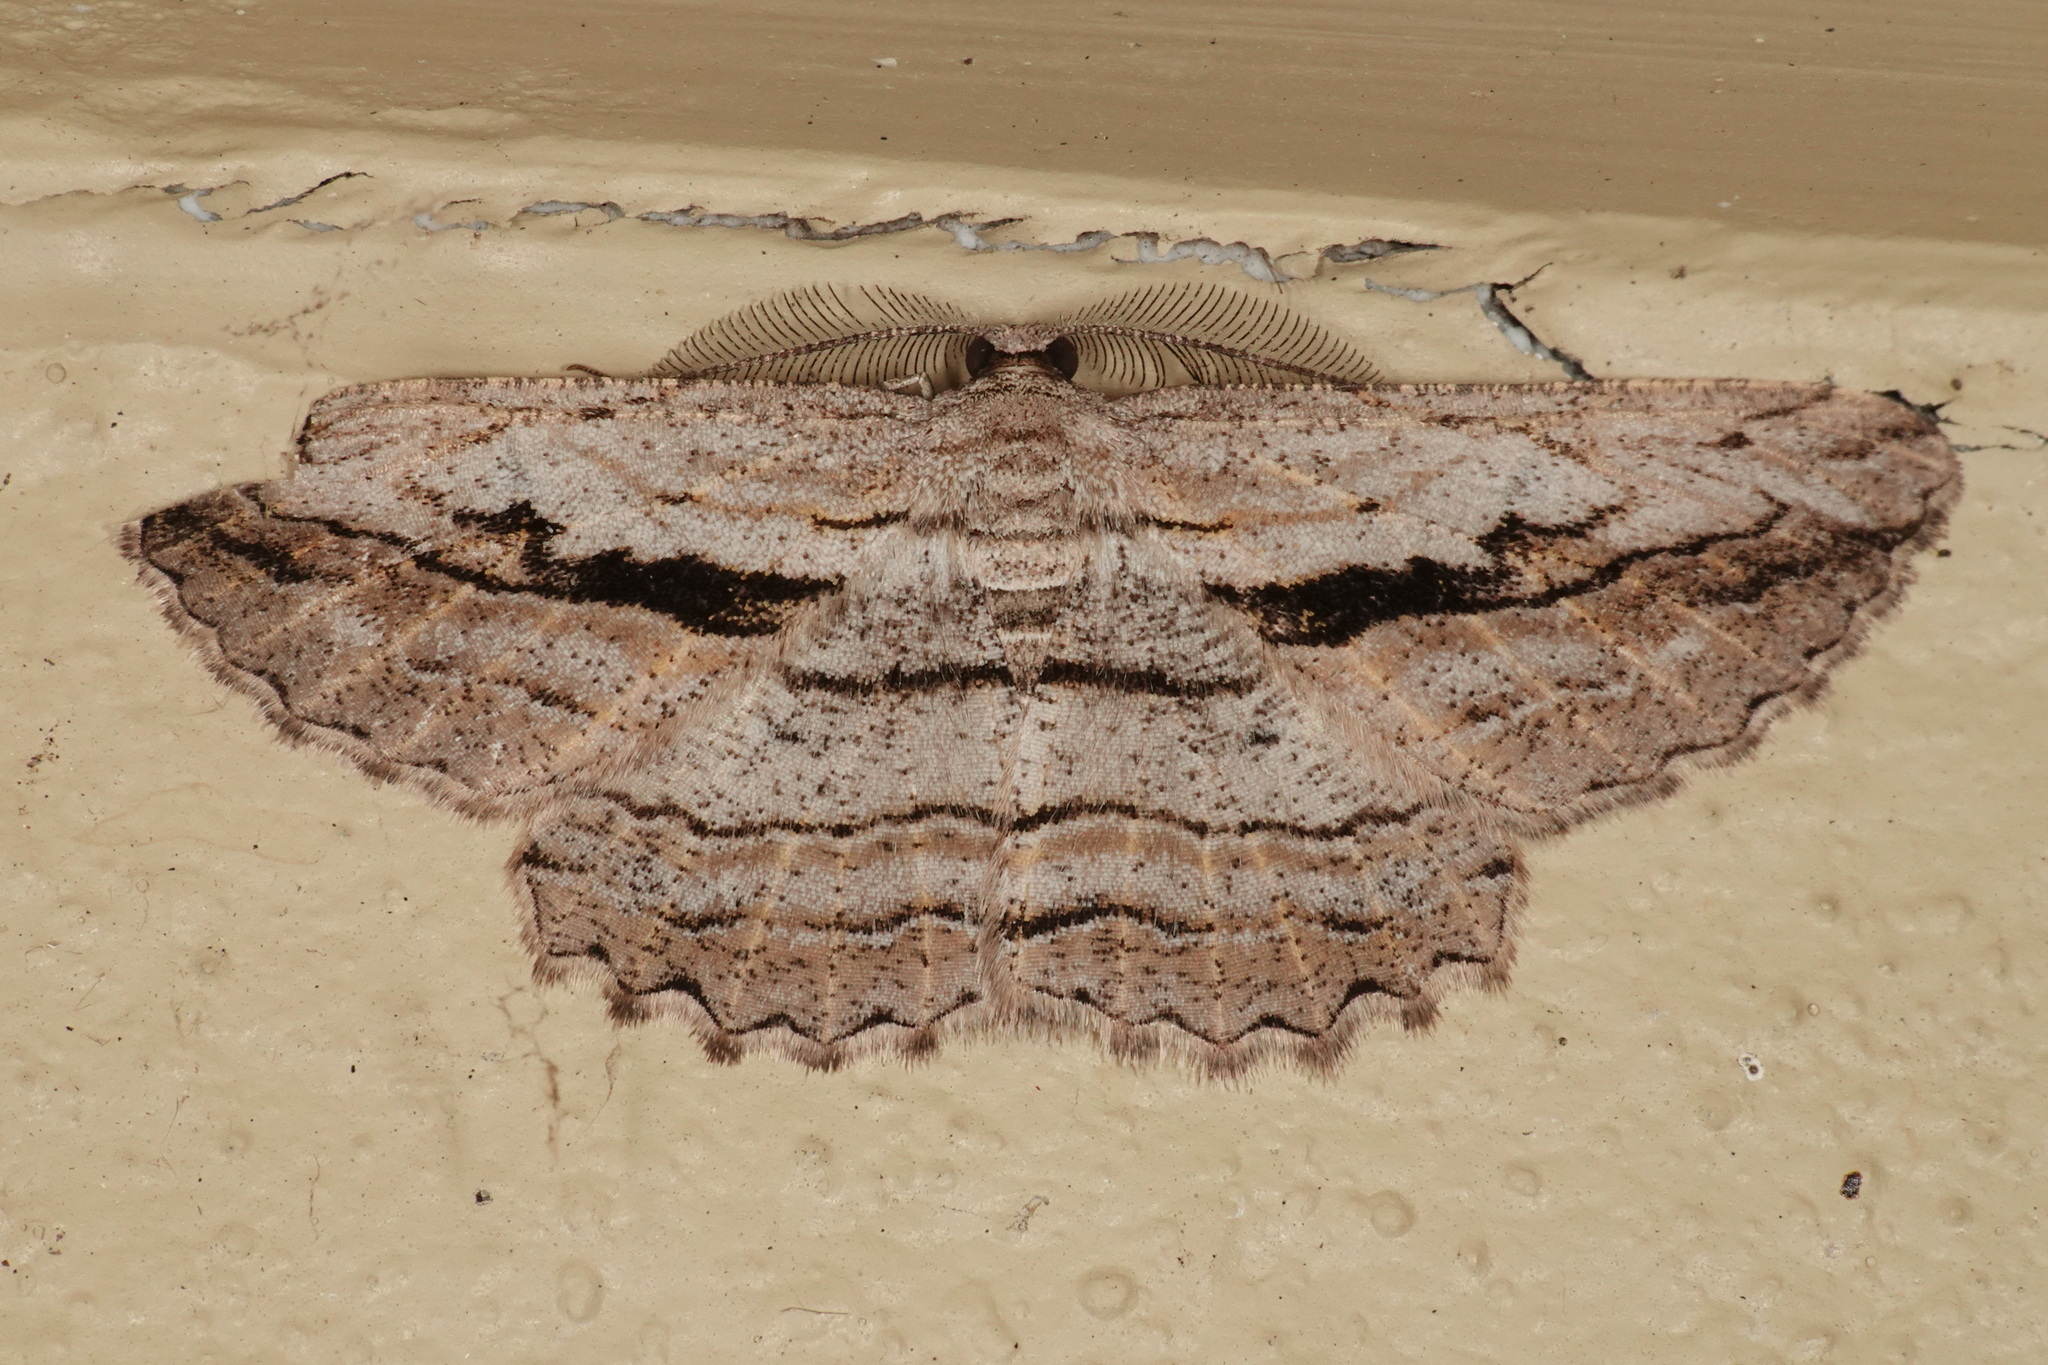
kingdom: Animalia
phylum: Arthropoda
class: Insecta
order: Lepidoptera
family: Geometridae
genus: Scioglyptis
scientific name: Scioglyptis loxographa
